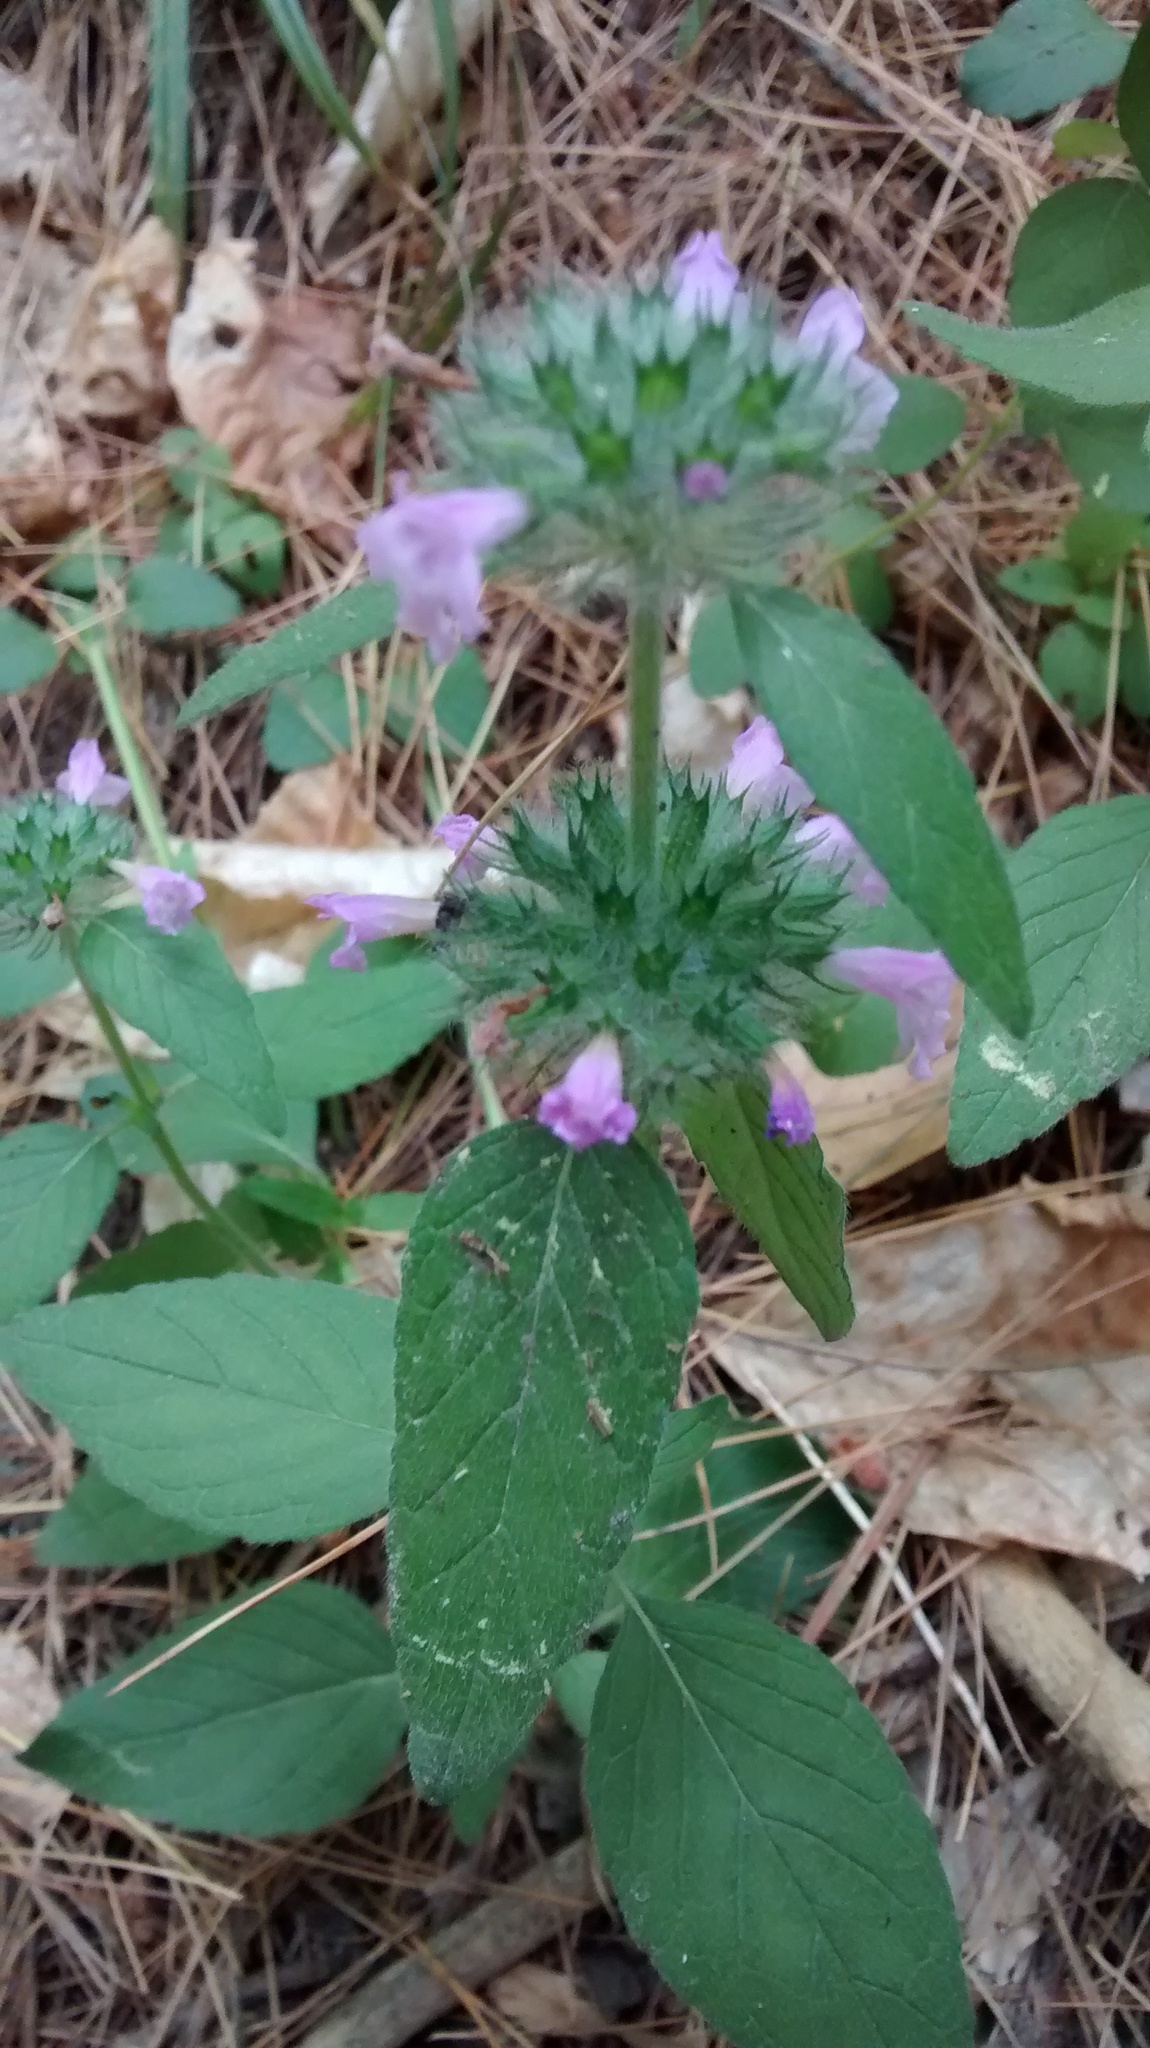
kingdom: Plantae
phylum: Tracheophyta
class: Magnoliopsida
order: Lamiales
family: Lamiaceae
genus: Clinopodium
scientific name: Clinopodium vulgare
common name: Wild basil
